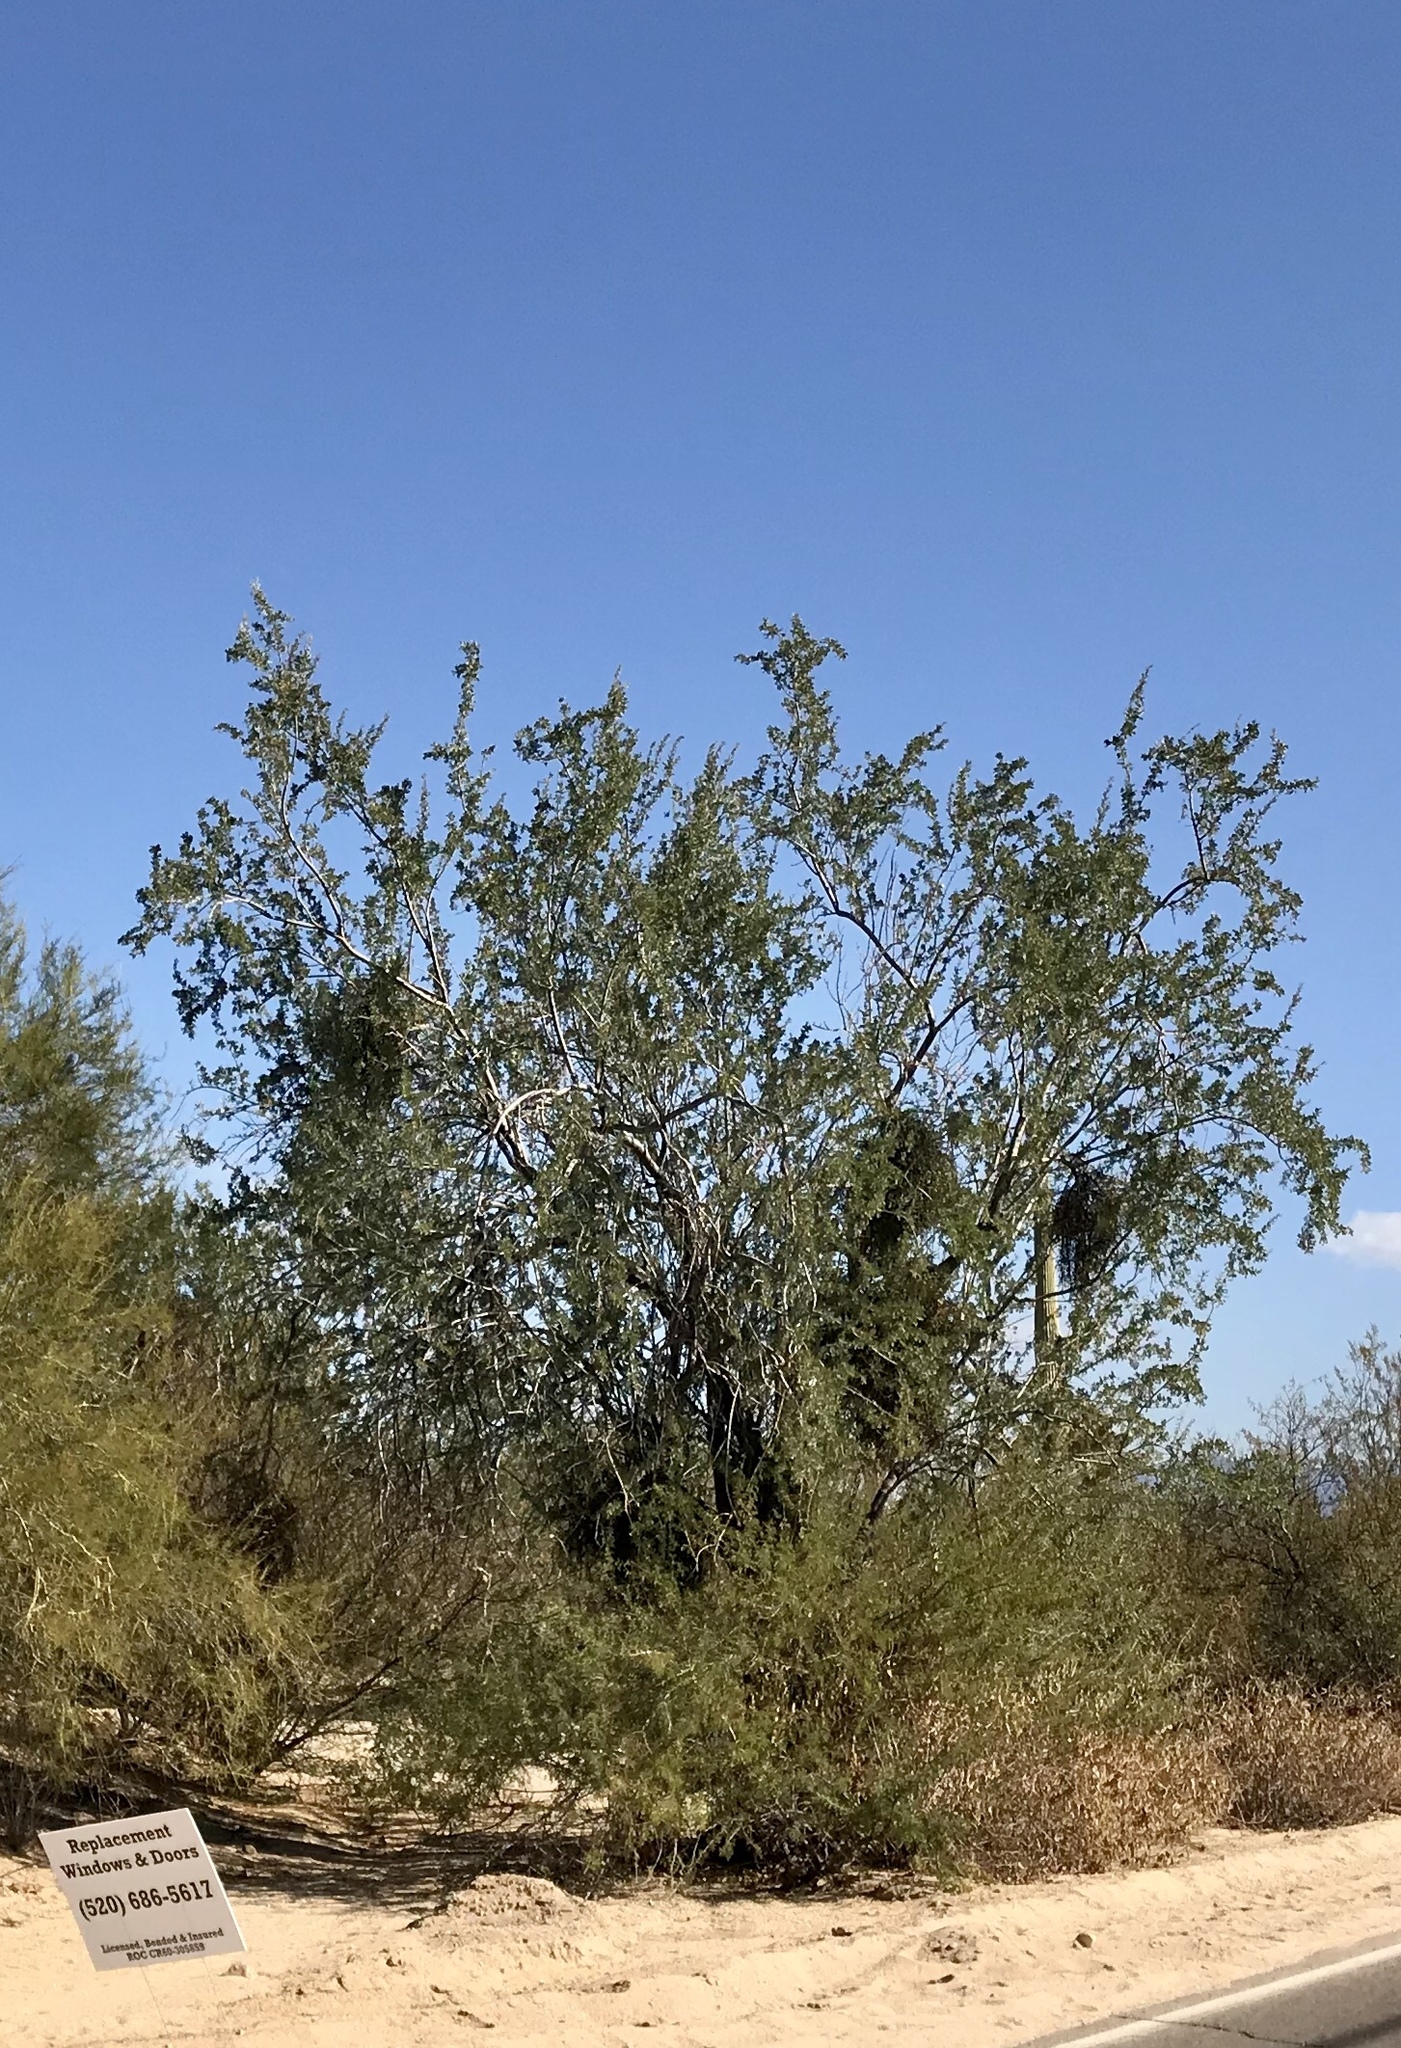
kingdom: Plantae
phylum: Tracheophyta
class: Magnoliopsida
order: Fabales
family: Fabaceae
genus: Olneya
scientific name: Olneya tesota
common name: Desert ironwood
